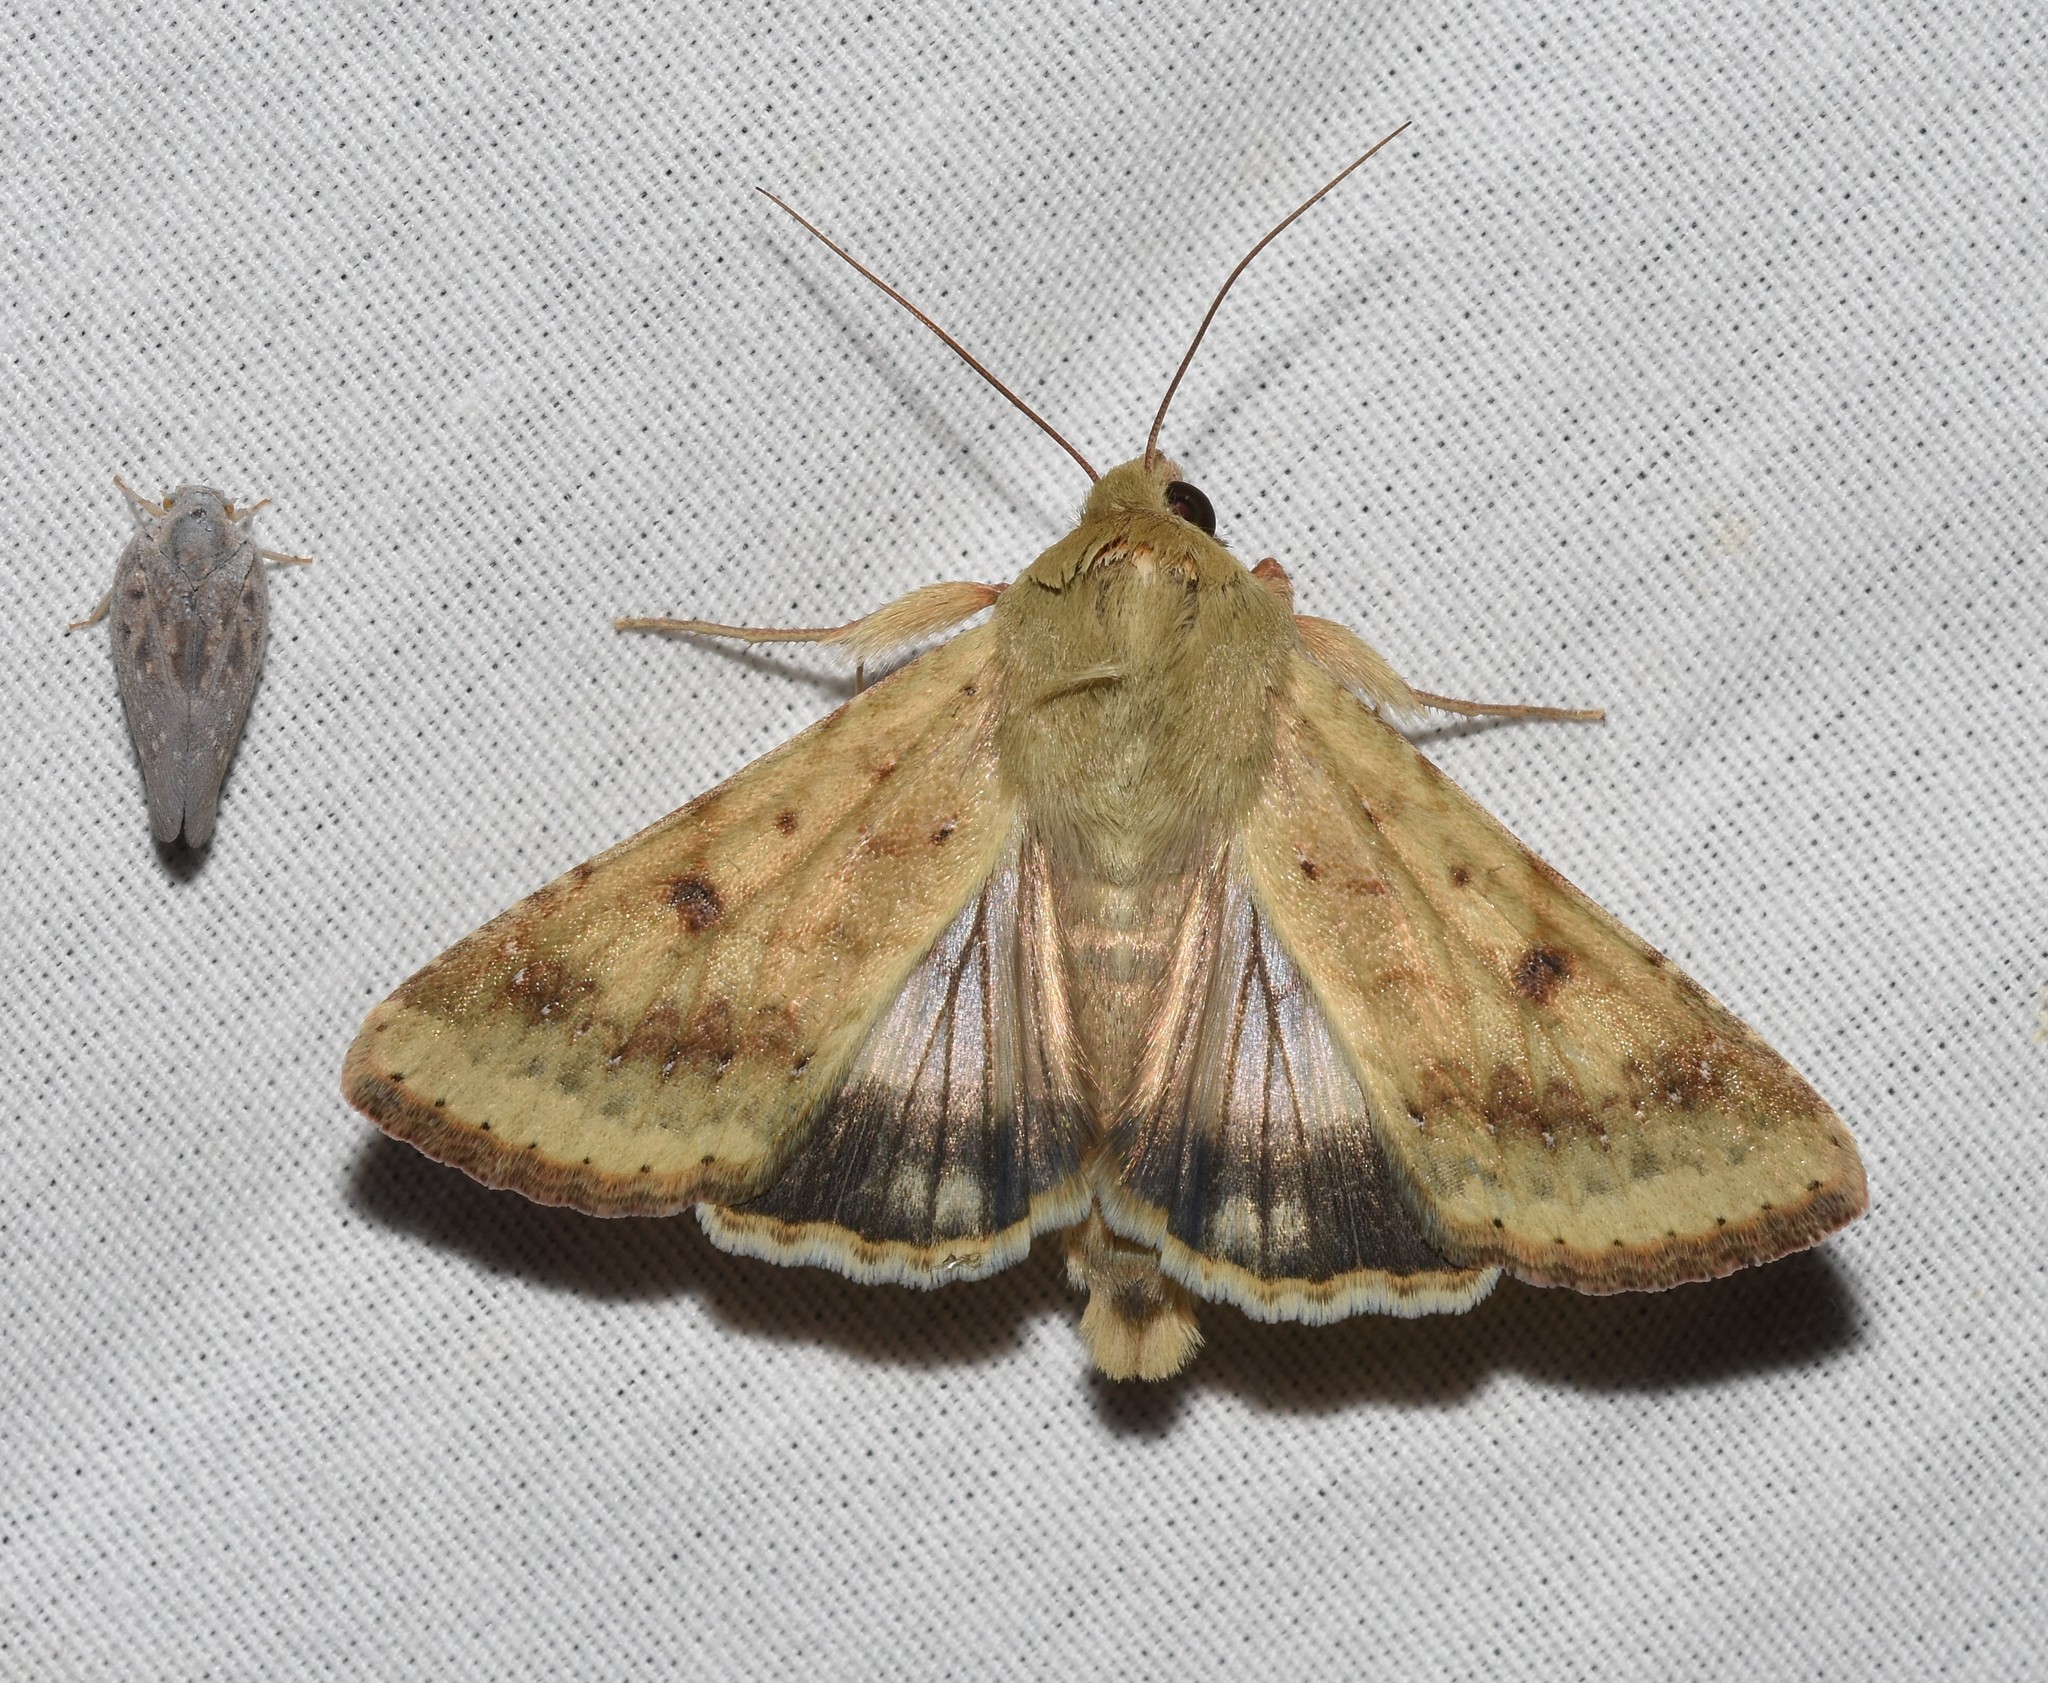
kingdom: Animalia
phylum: Arthropoda
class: Insecta
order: Lepidoptera
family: Noctuidae
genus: Helicoverpa
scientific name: Helicoverpa zea
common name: Bollworm
